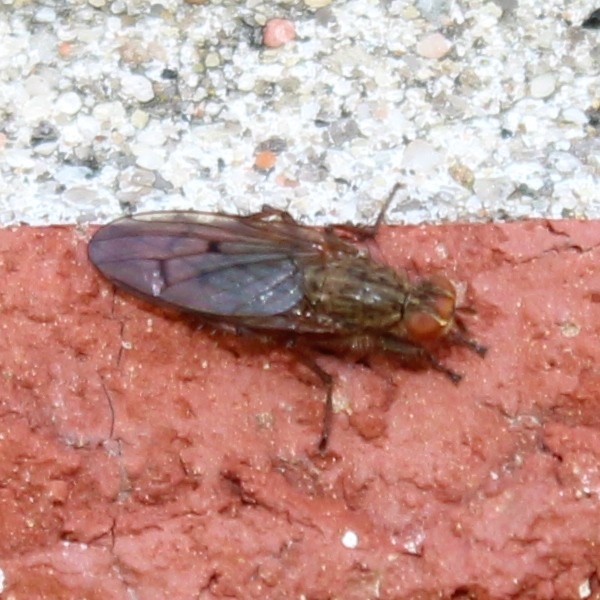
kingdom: Animalia
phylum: Arthropoda
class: Insecta
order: Diptera
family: Scathophagidae
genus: Scathophaga
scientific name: Scathophaga furcata
